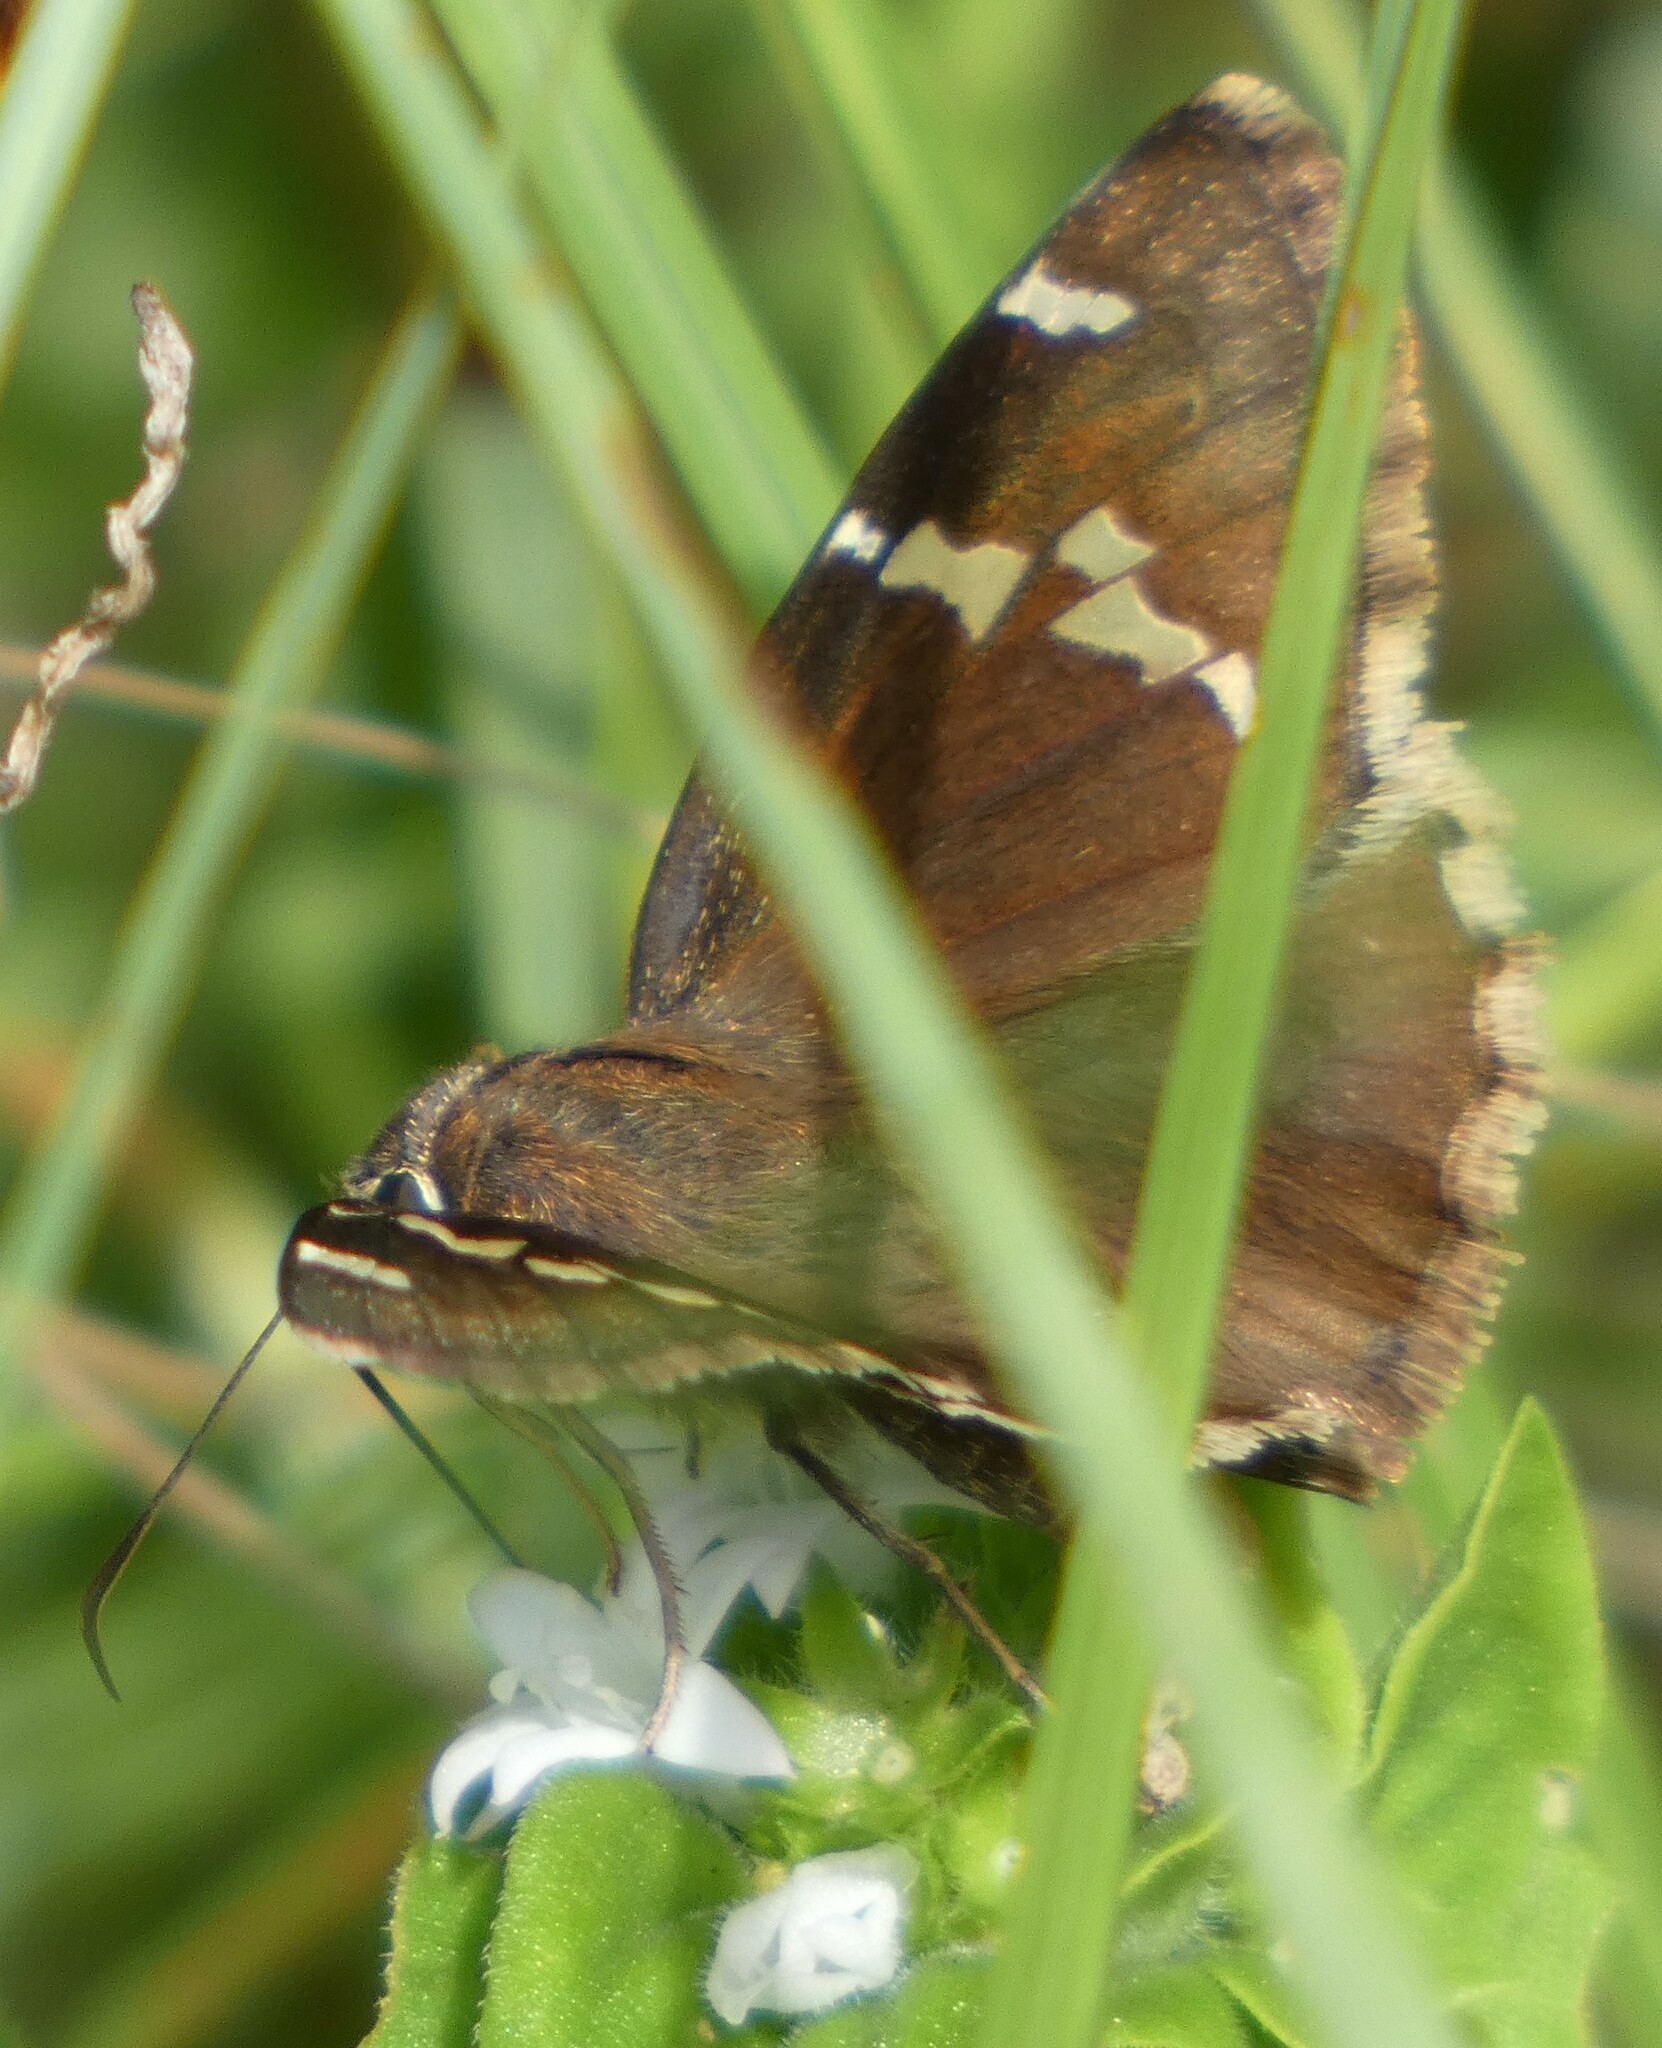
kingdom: Animalia
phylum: Arthropoda
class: Insecta
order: Lepidoptera
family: Hesperiidae
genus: Thorybes
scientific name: Thorybes daunus
